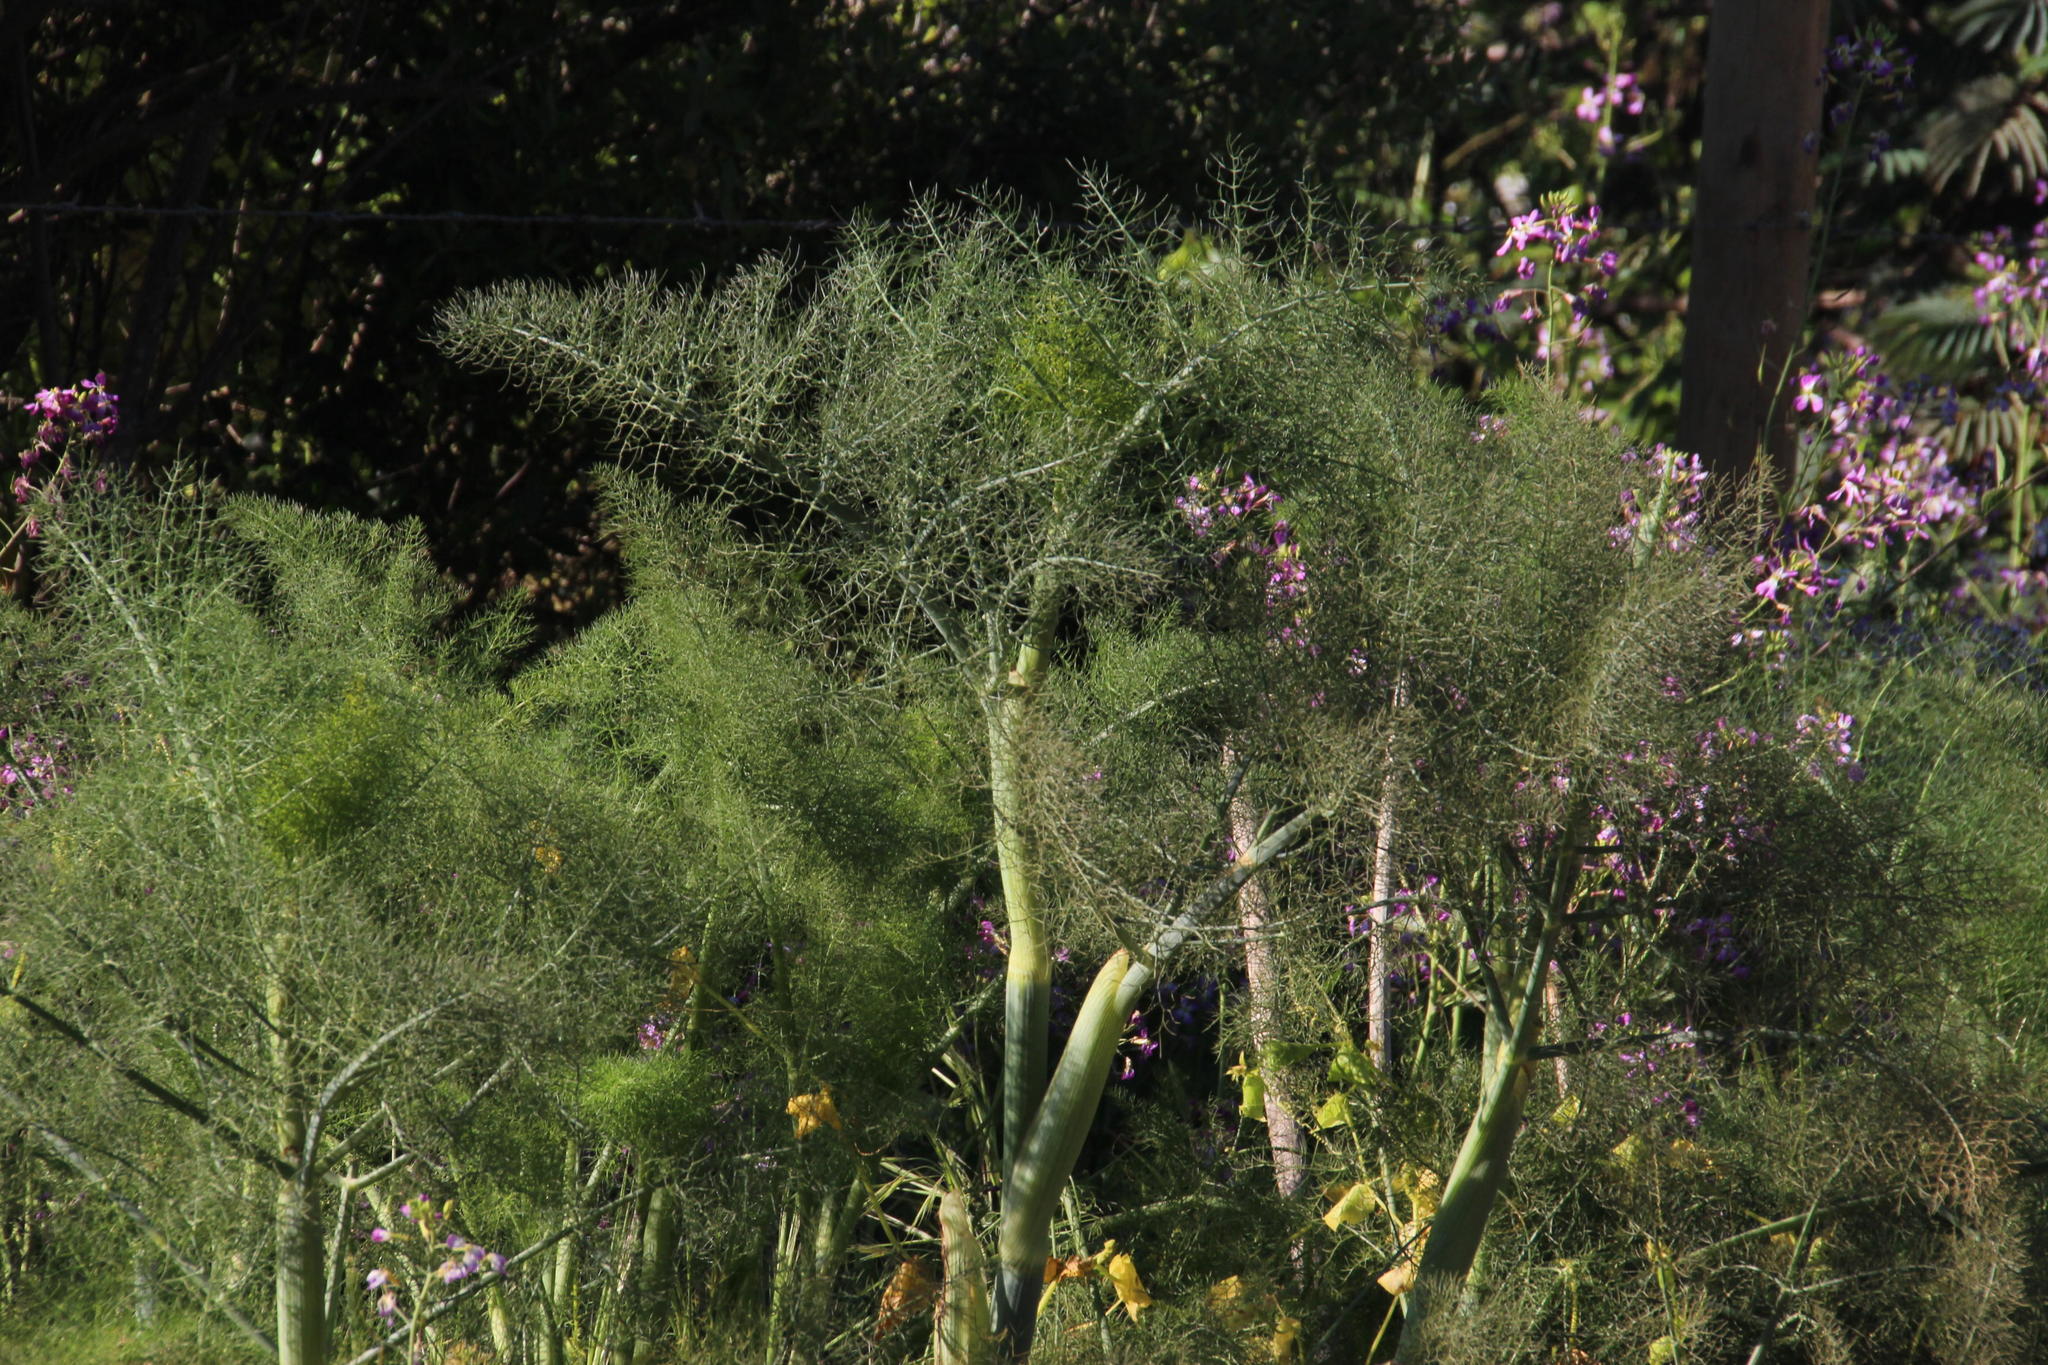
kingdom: Plantae
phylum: Tracheophyta
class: Magnoliopsida
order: Apiales
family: Apiaceae
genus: Foeniculum
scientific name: Foeniculum vulgare
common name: Fennel
